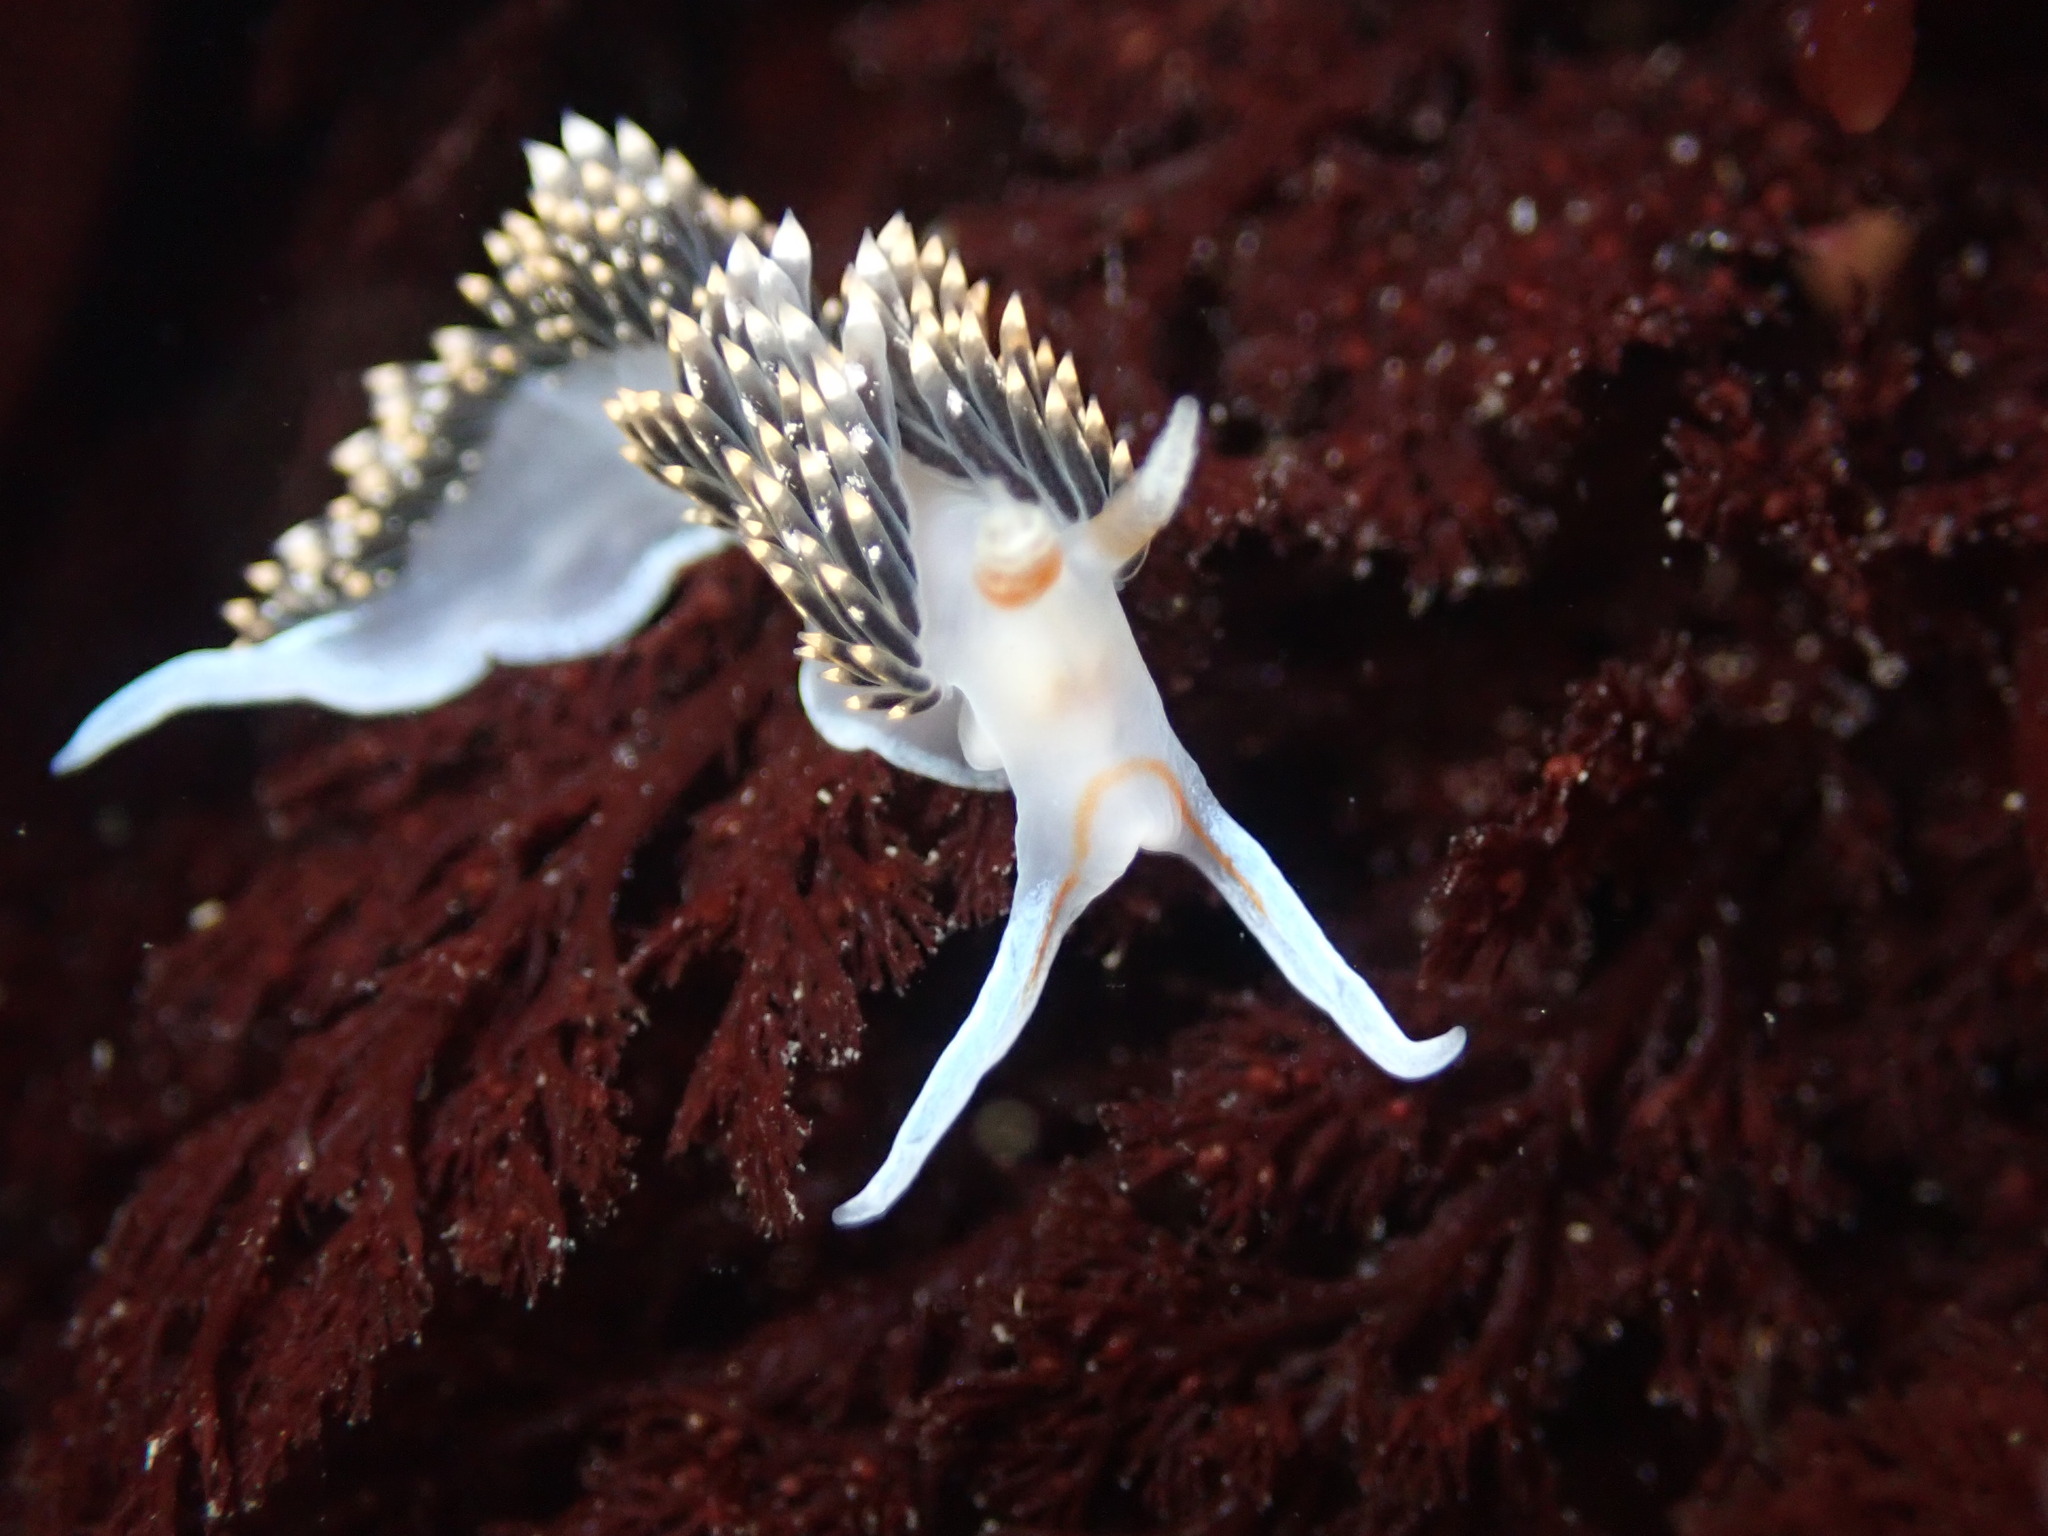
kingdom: Animalia
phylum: Mollusca
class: Gastropoda
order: Nudibranchia
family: Facelinidae
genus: Phidiana
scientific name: Phidiana hiltoni
